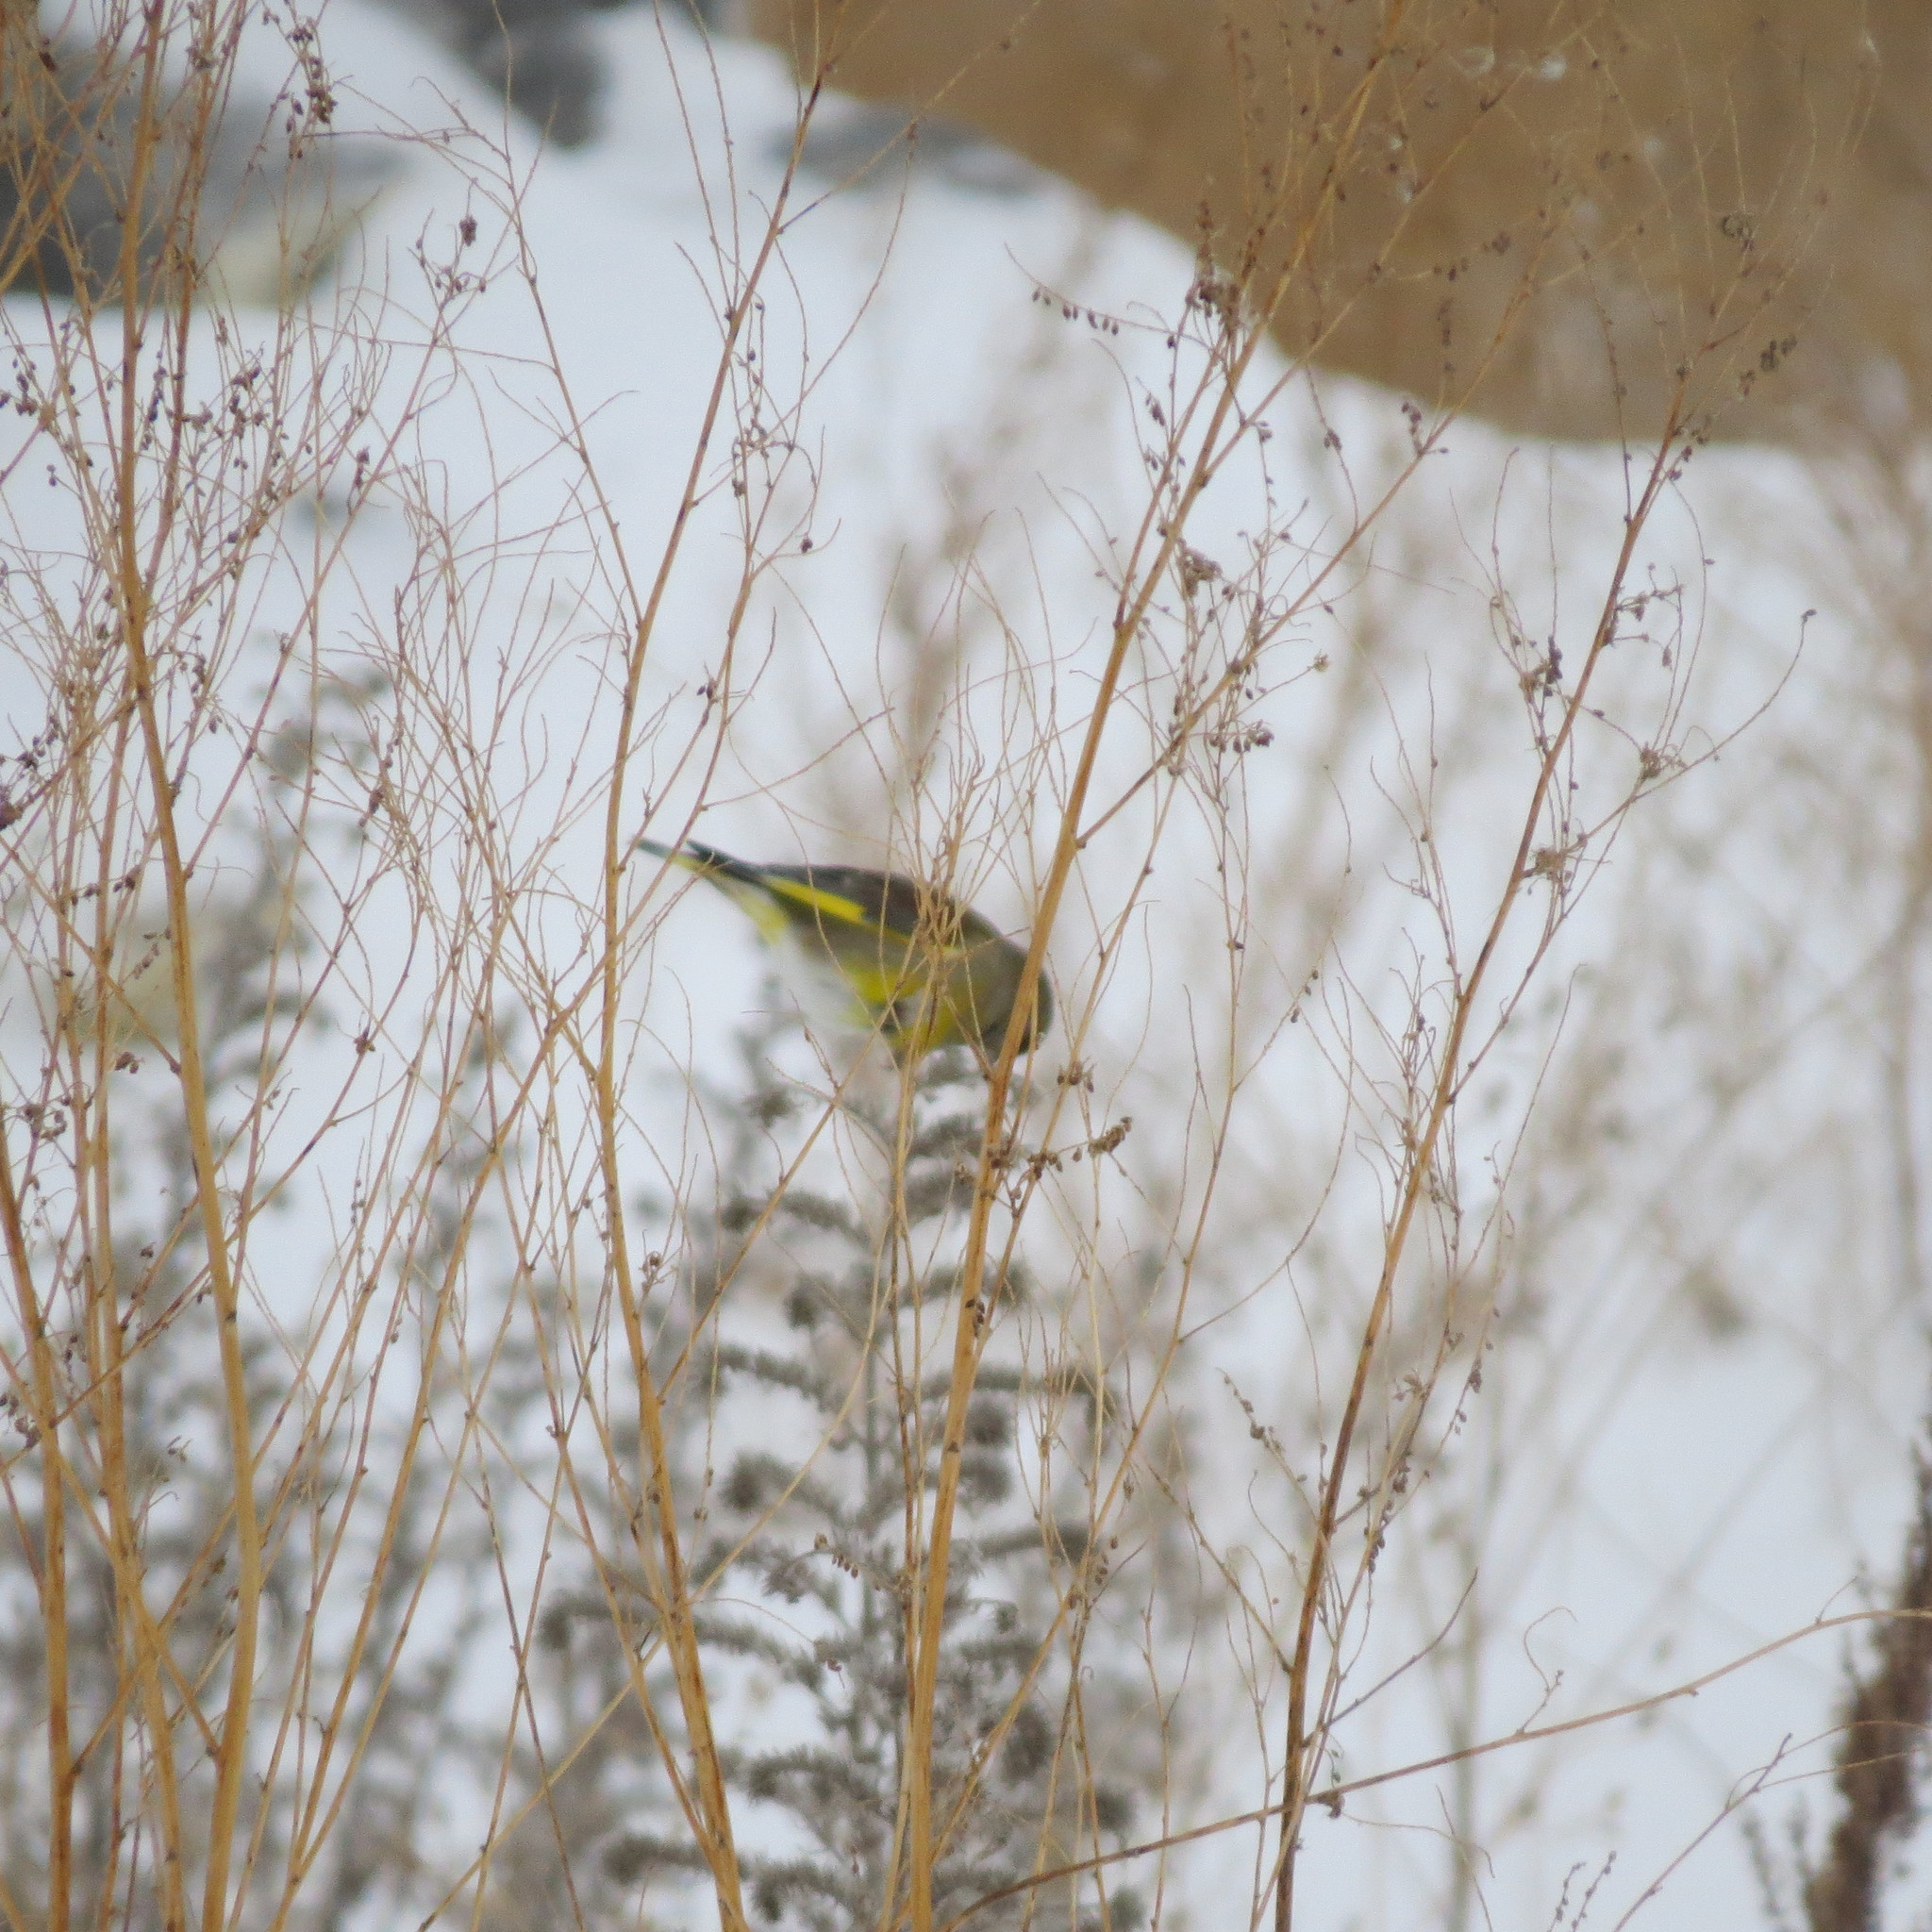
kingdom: Plantae
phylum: Tracheophyta
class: Liliopsida
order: Poales
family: Poaceae
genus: Chloris
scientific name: Chloris chloris
